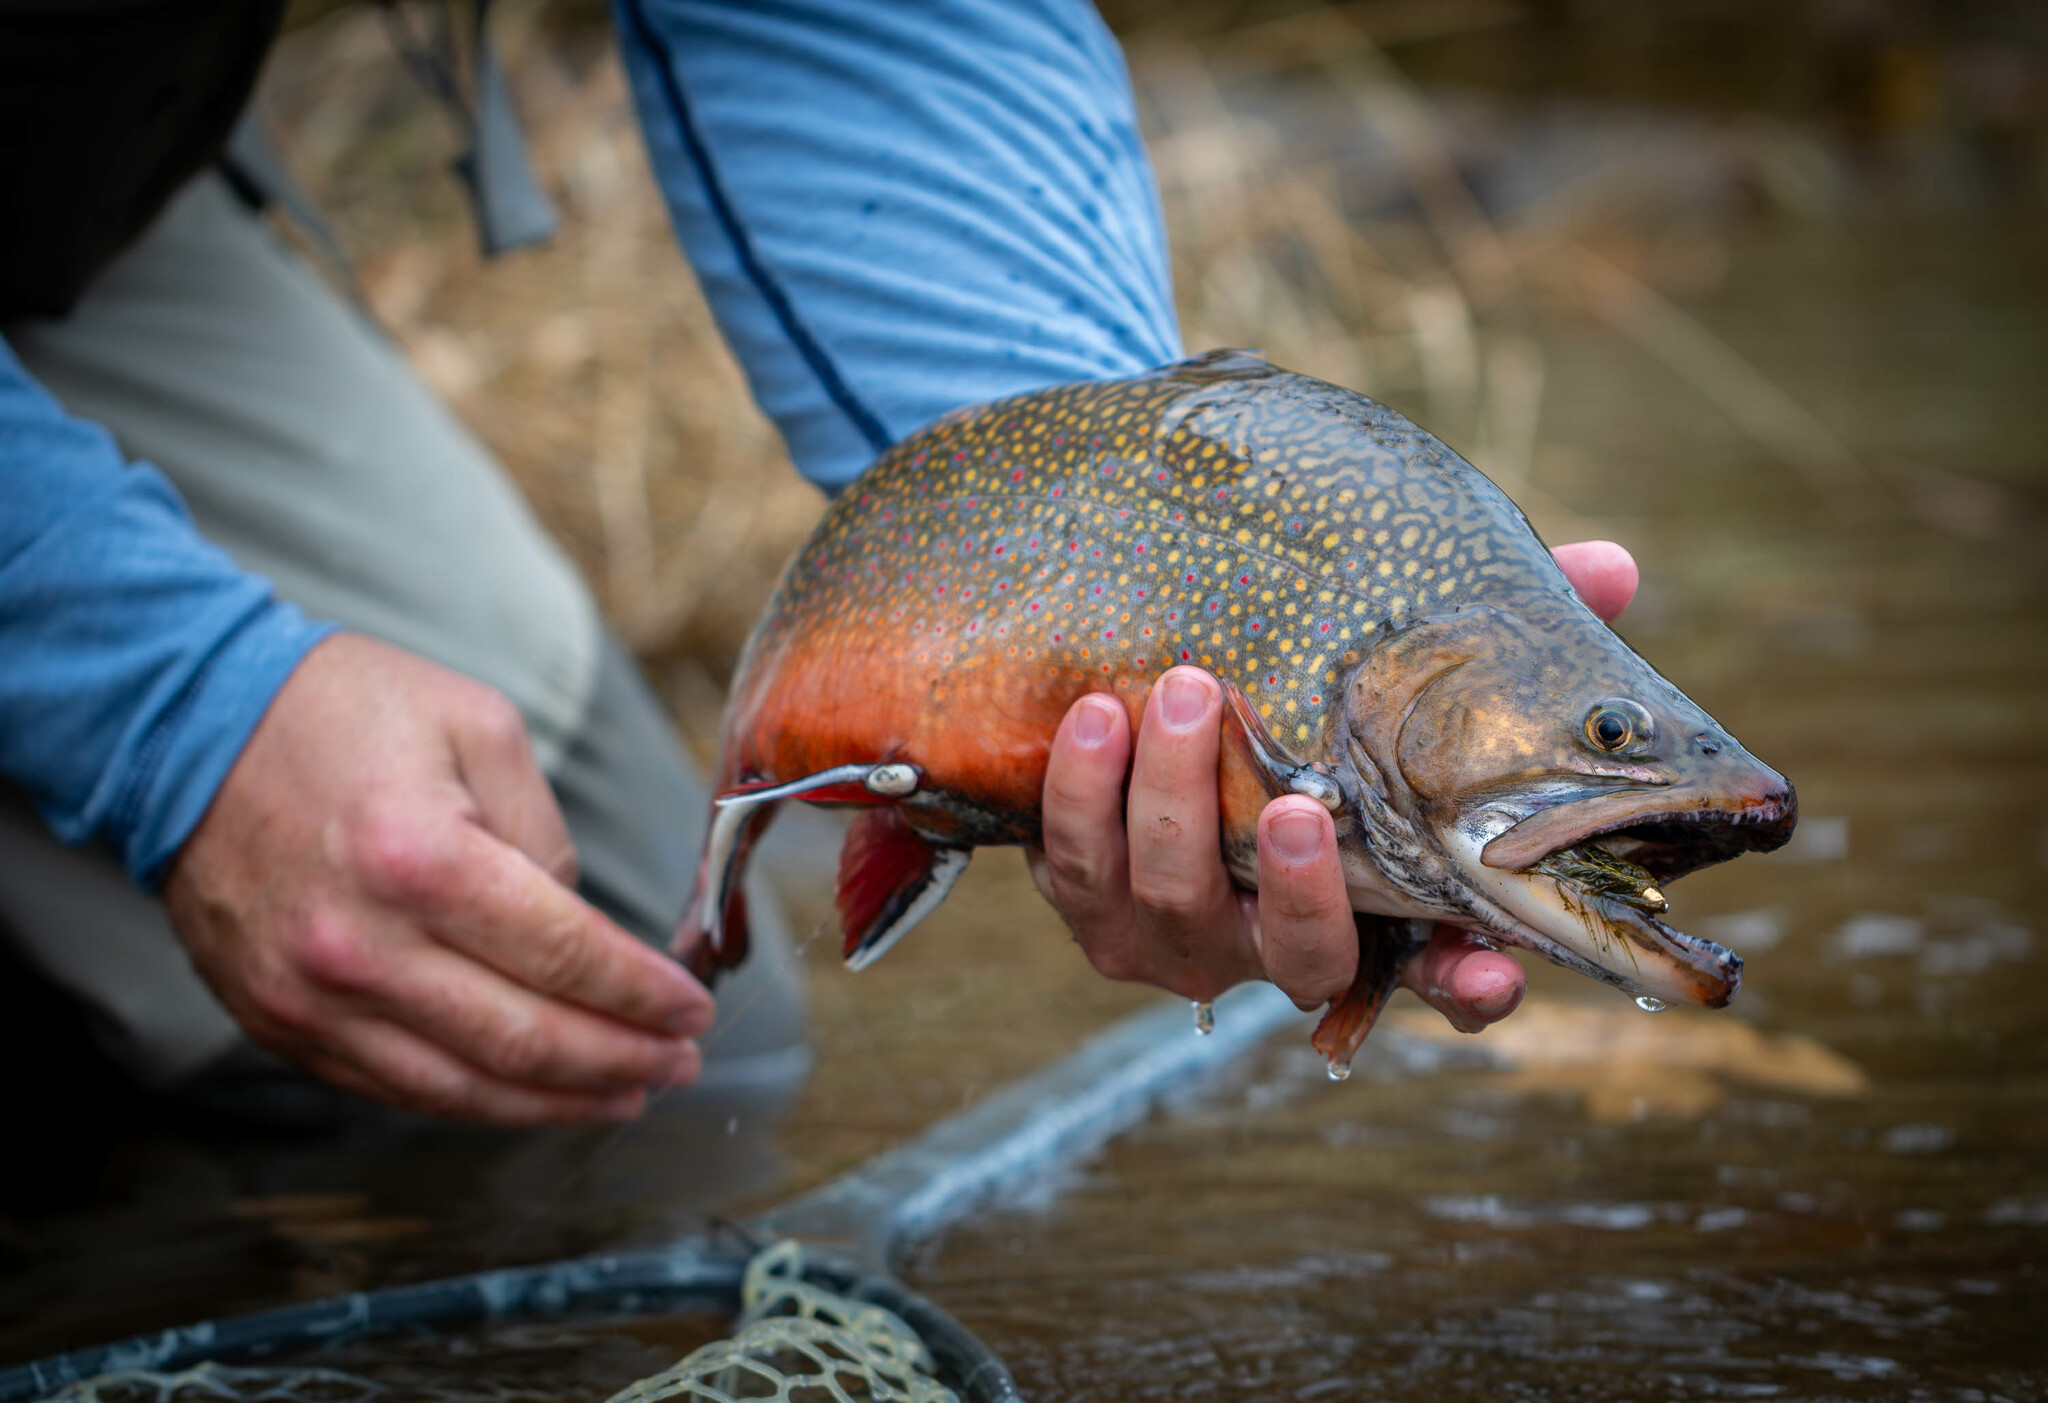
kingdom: Animalia
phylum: Chordata
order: Salmoniformes
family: Salmonidae
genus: Salvelinus
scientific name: Salvelinus fontinalis
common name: Brook trout
